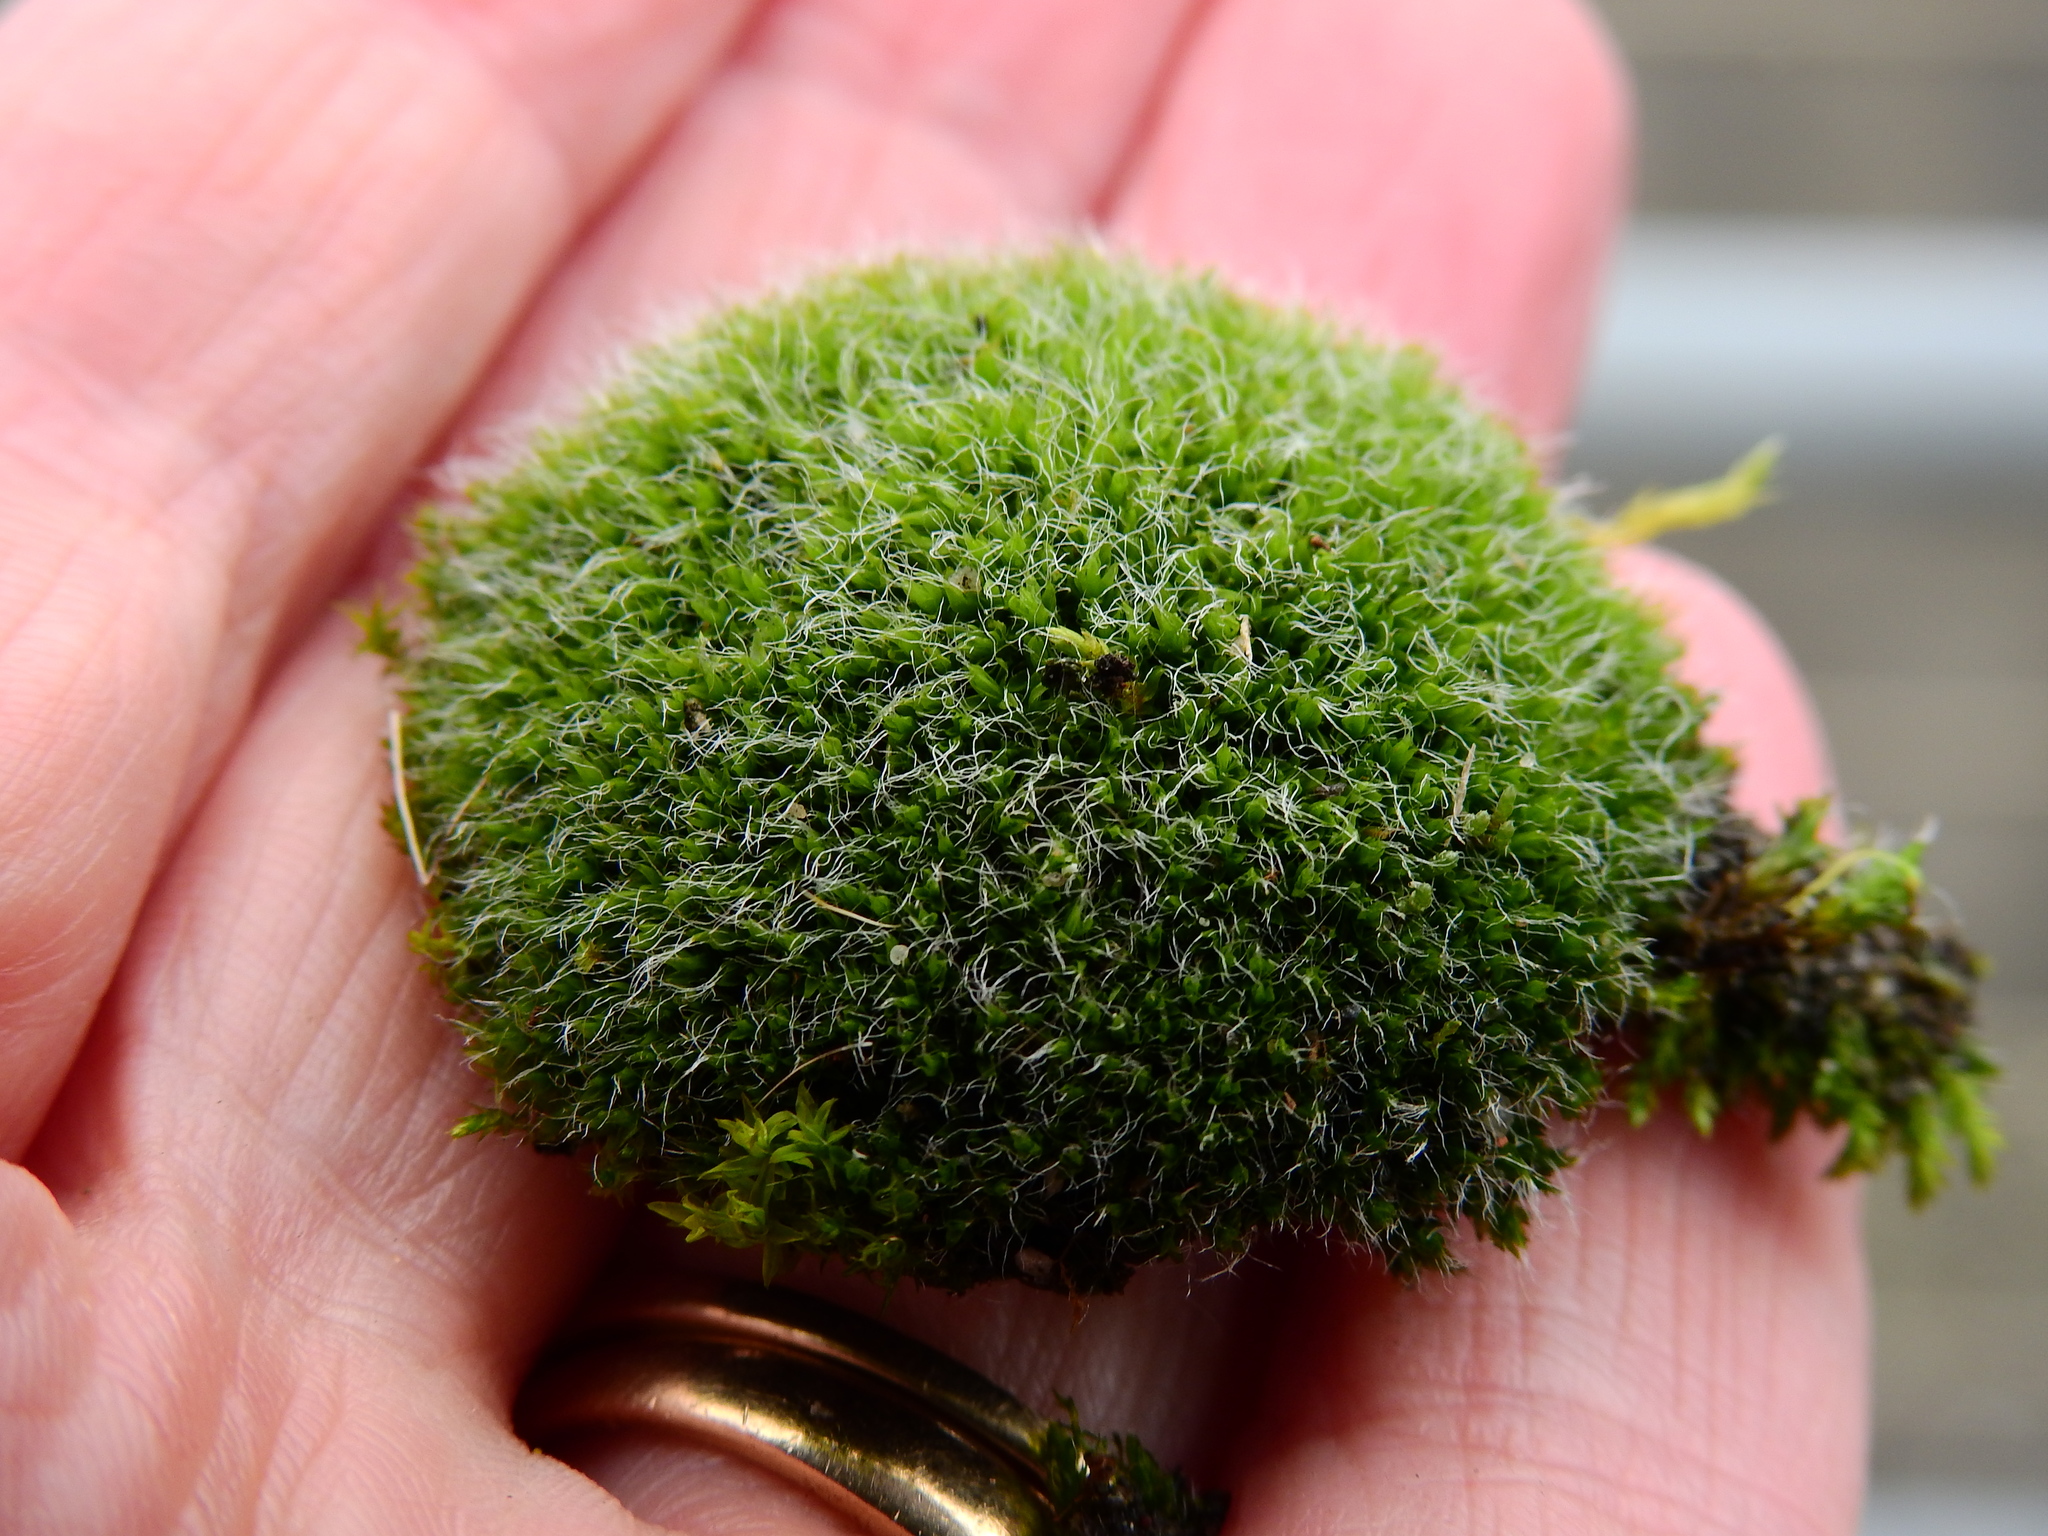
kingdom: Plantae
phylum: Bryophyta
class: Bryopsida
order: Grimmiales
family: Grimmiaceae
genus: Grimmia
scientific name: Grimmia pulvinata
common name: Grey-cushioned grimmia
